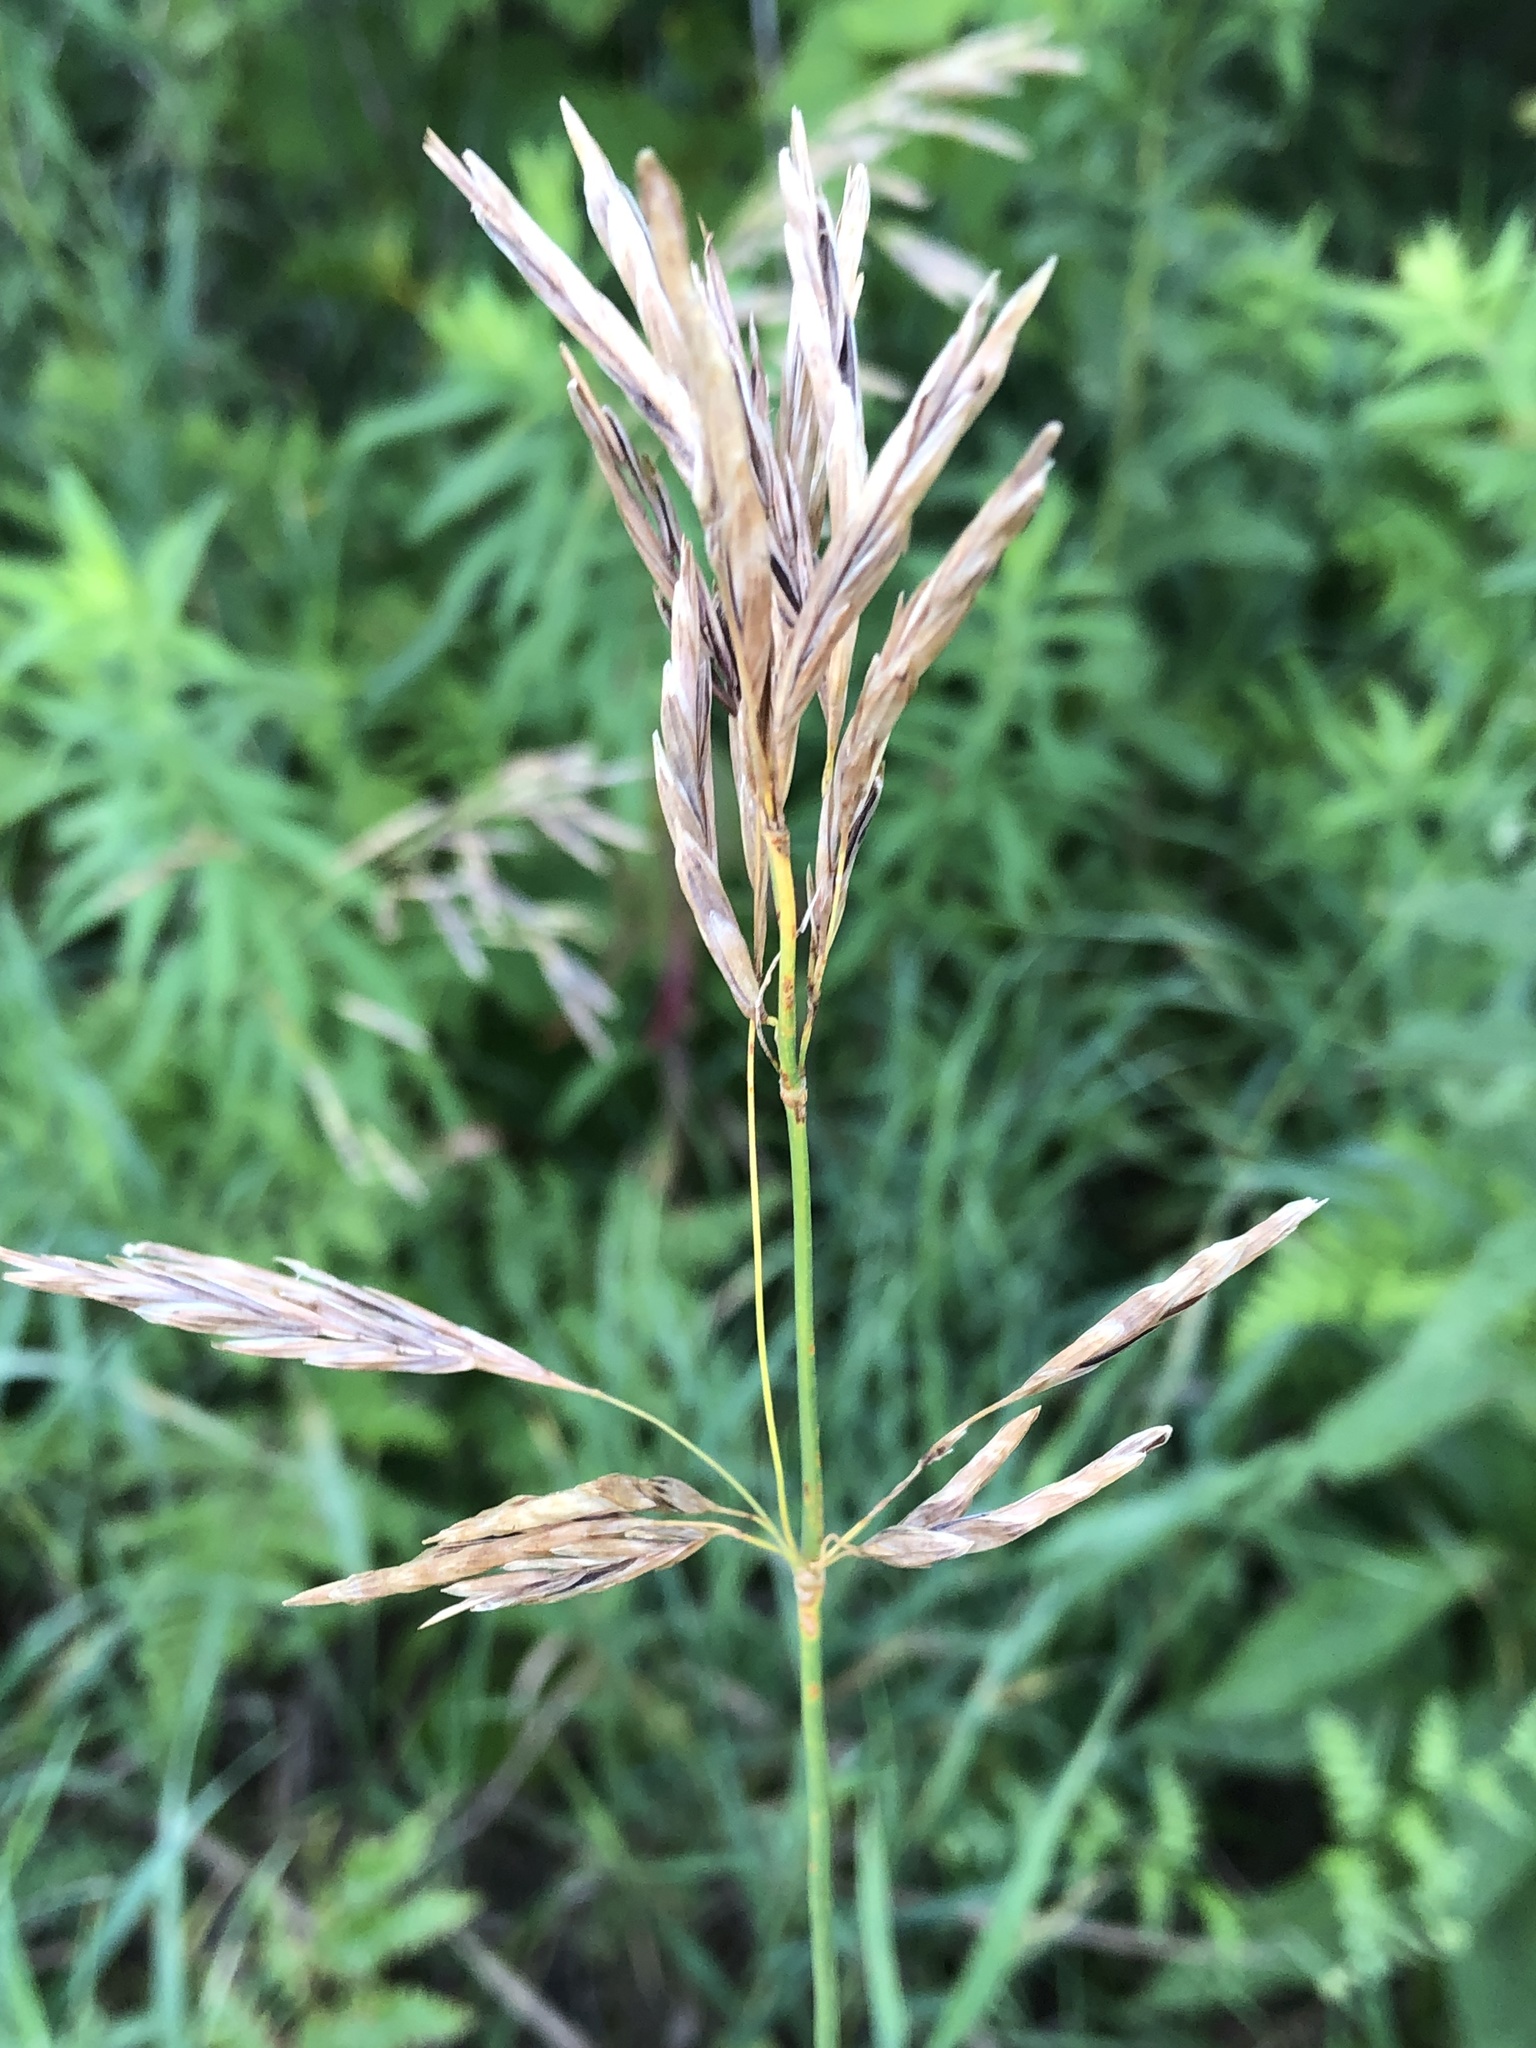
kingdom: Plantae
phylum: Tracheophyta
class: Liliopsida
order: Poales
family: Poaceae
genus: Bromus
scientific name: Bromus inermis
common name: Smooth brome
